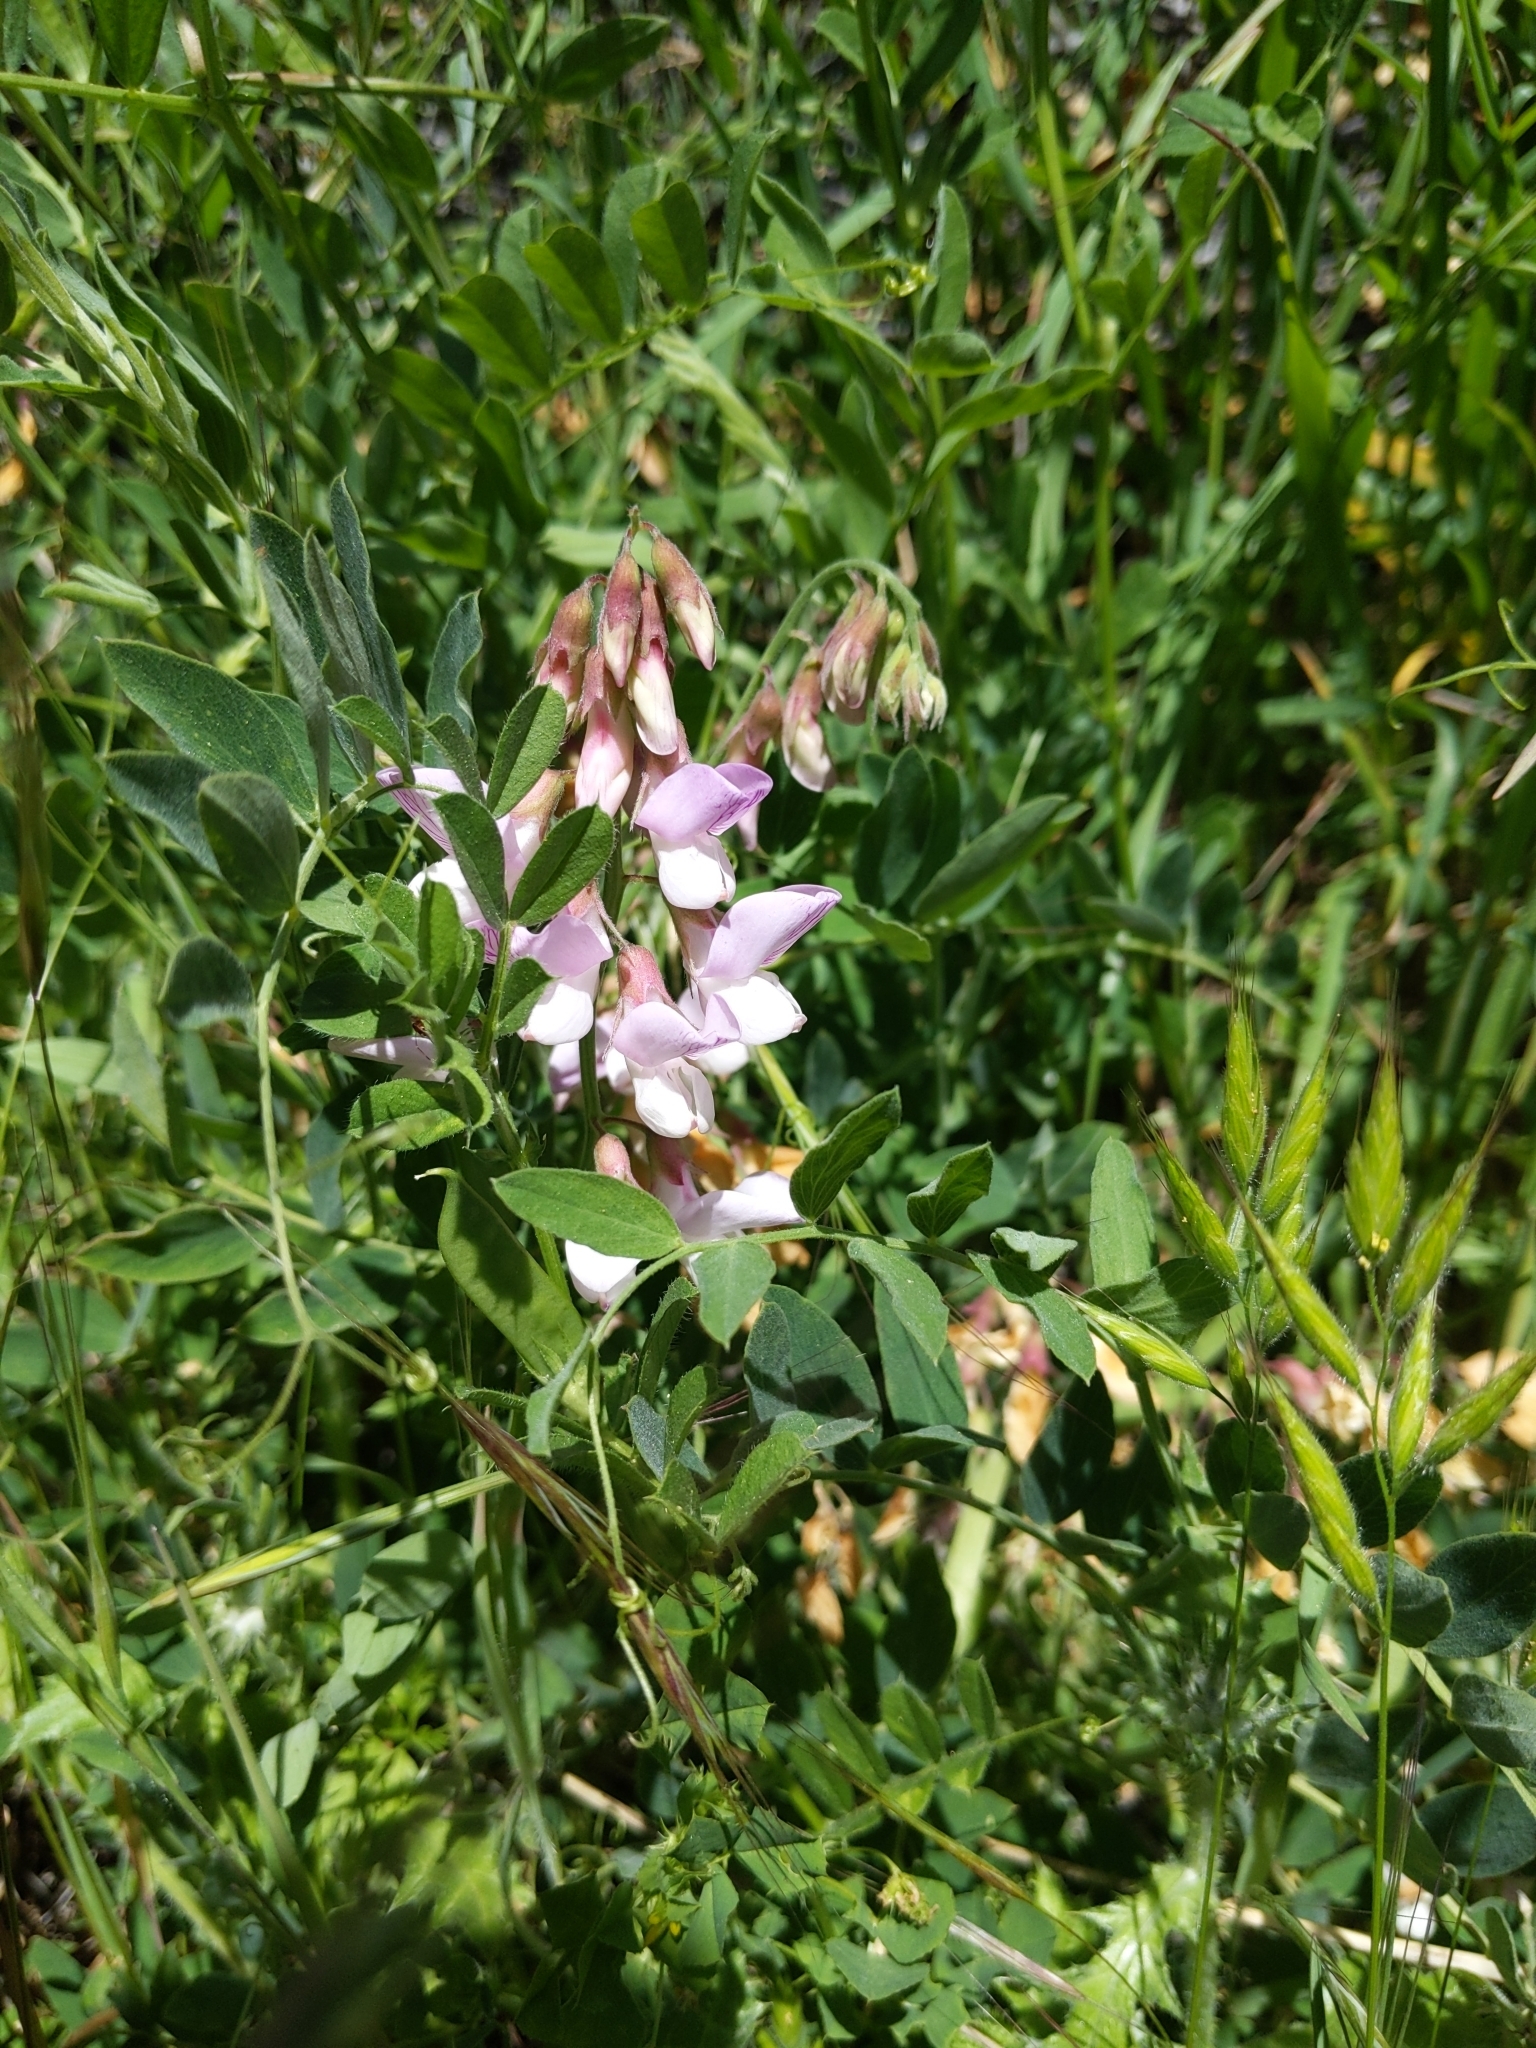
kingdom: Plantae
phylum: Tracheophyta
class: Magnoliopsida
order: Fabales
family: Fabaceae
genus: Lathyrus
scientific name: Lathyrus vestitus
